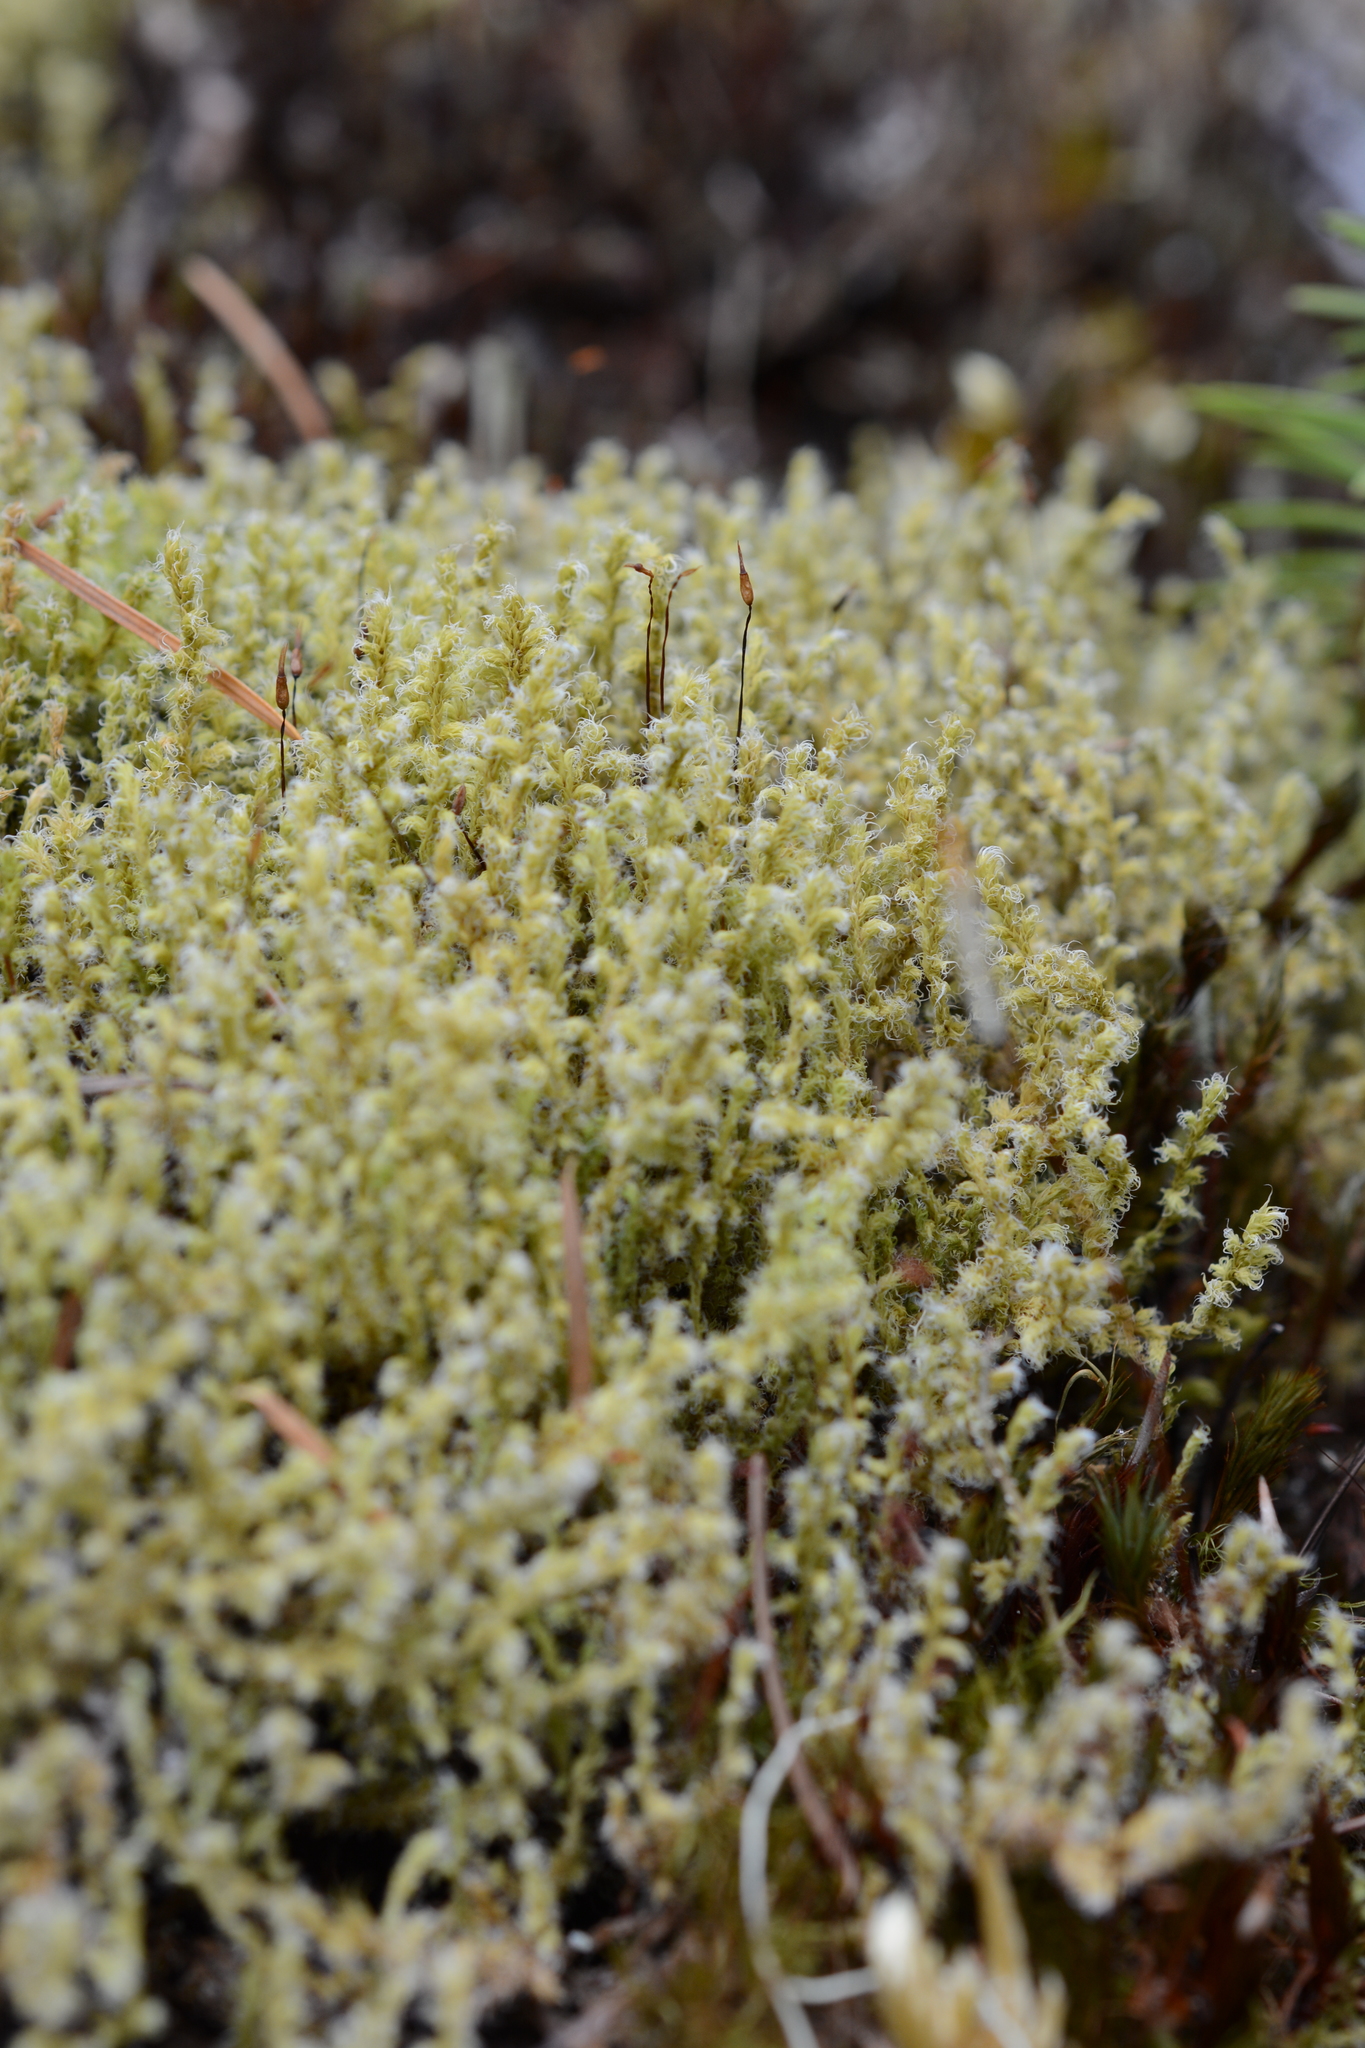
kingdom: Plantae
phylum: Bryophyta
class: Bryopsida
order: Grimmiales
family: Grimmiaceae
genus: Niphotrichum
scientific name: Niphotrichum canescens
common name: Hoary fringe-moss
